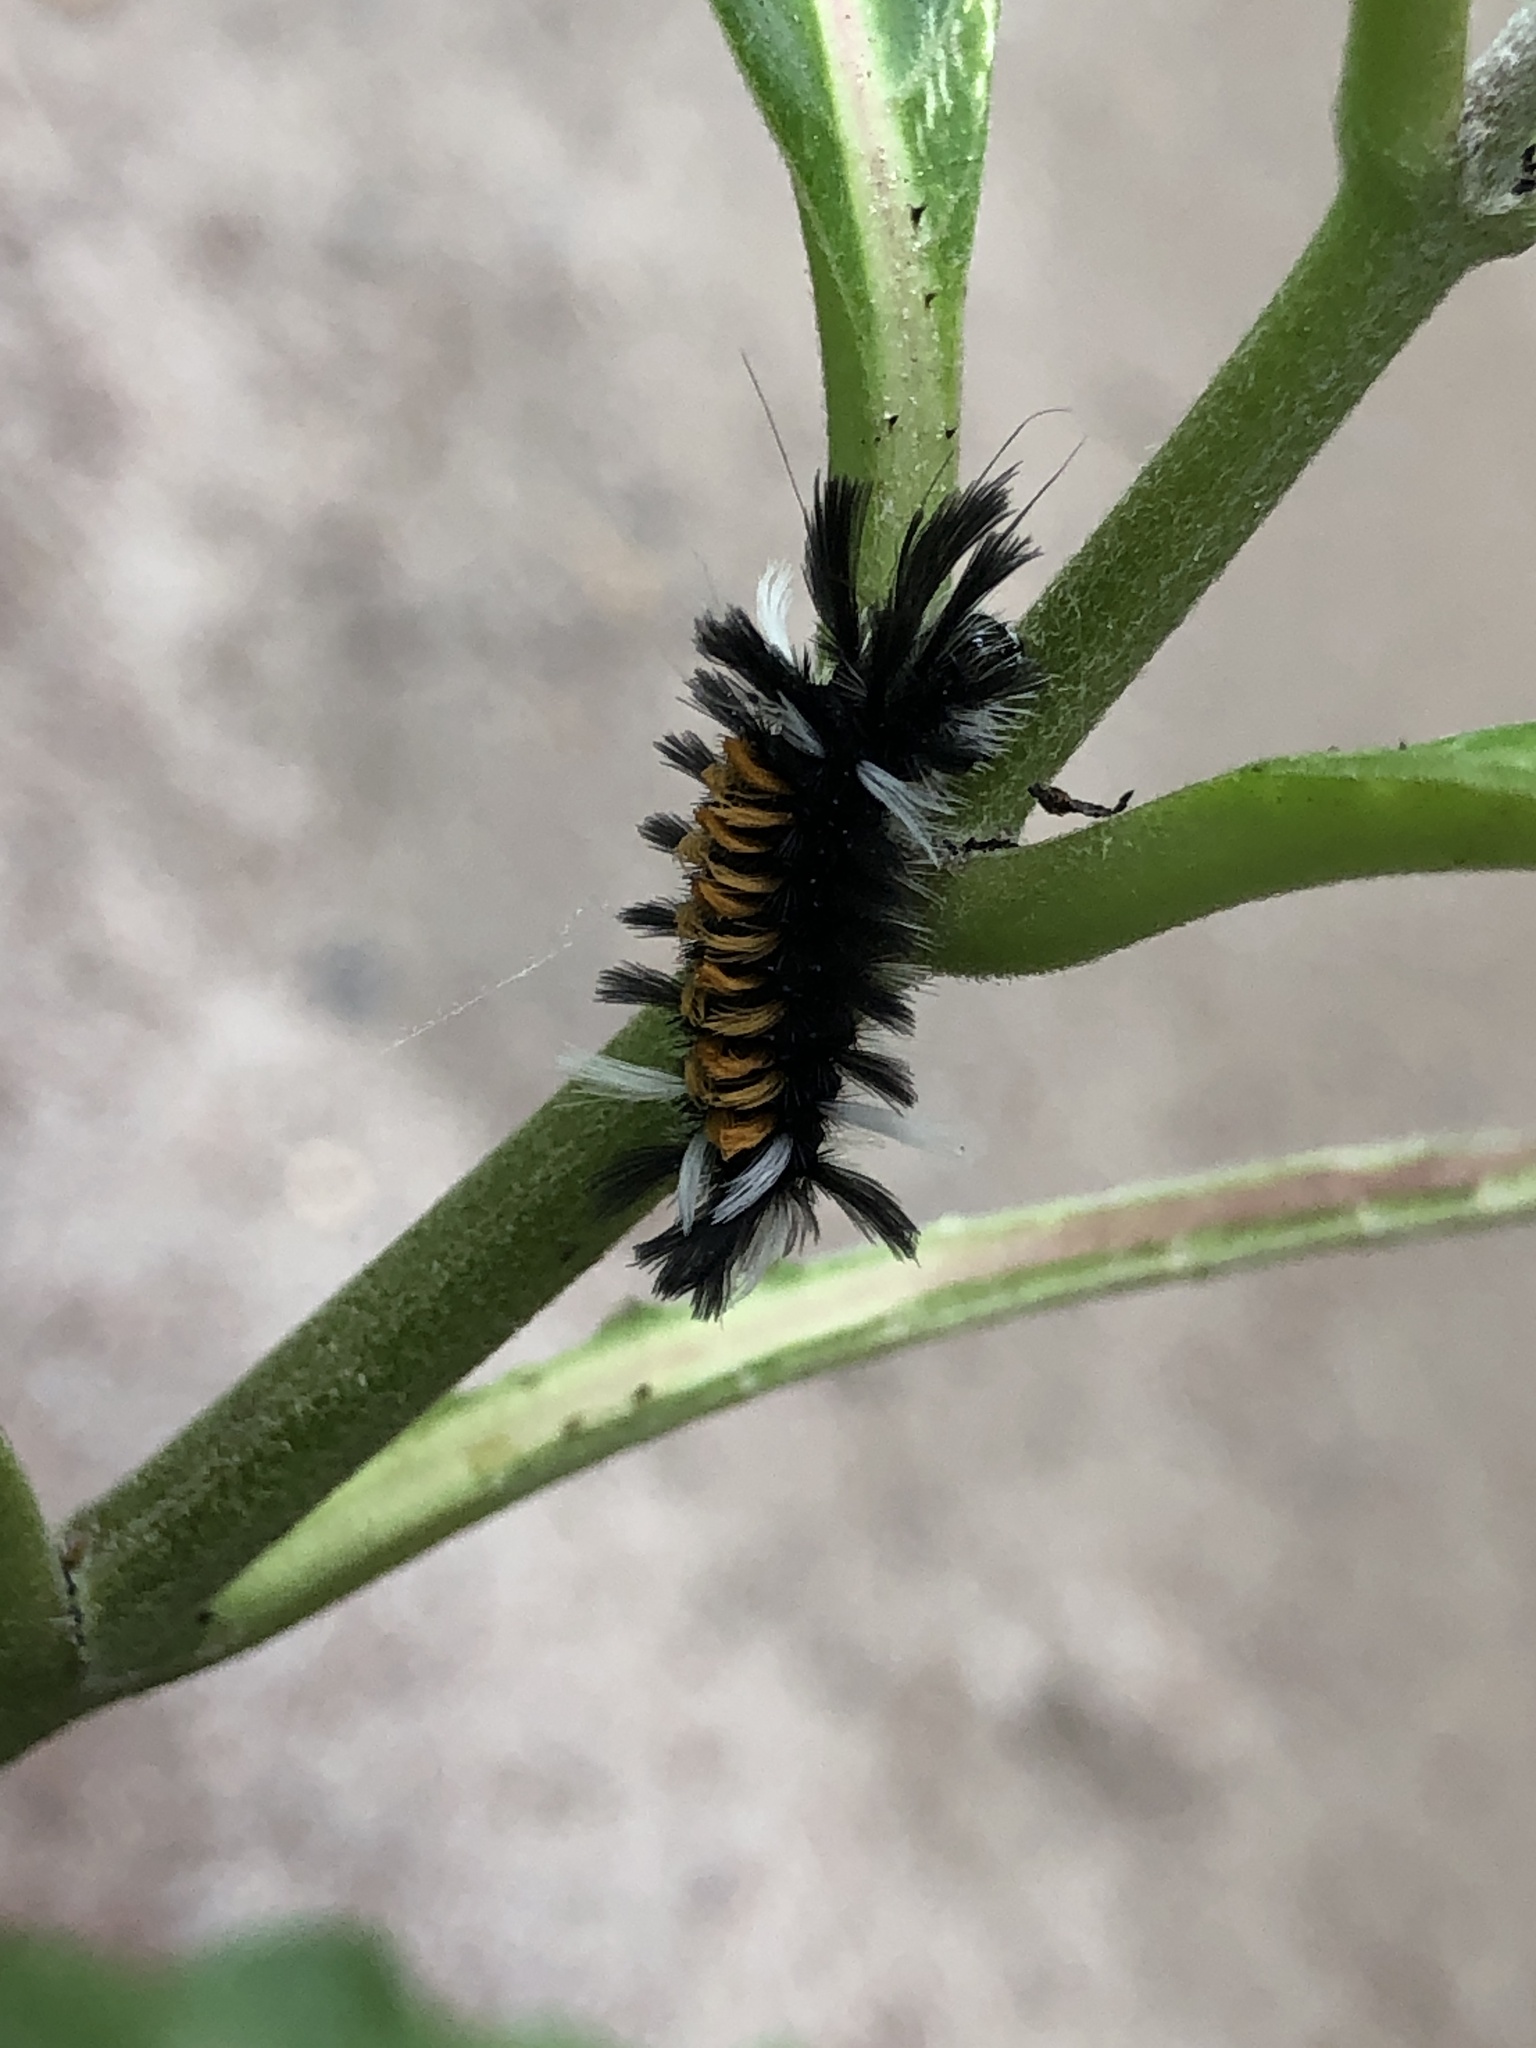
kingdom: Animalia
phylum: Arthropoda
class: Insecta
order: Lepidoptera
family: Erebidae
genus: Euchaetes
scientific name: Euchaetes egle
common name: Milkweed tussock moth
